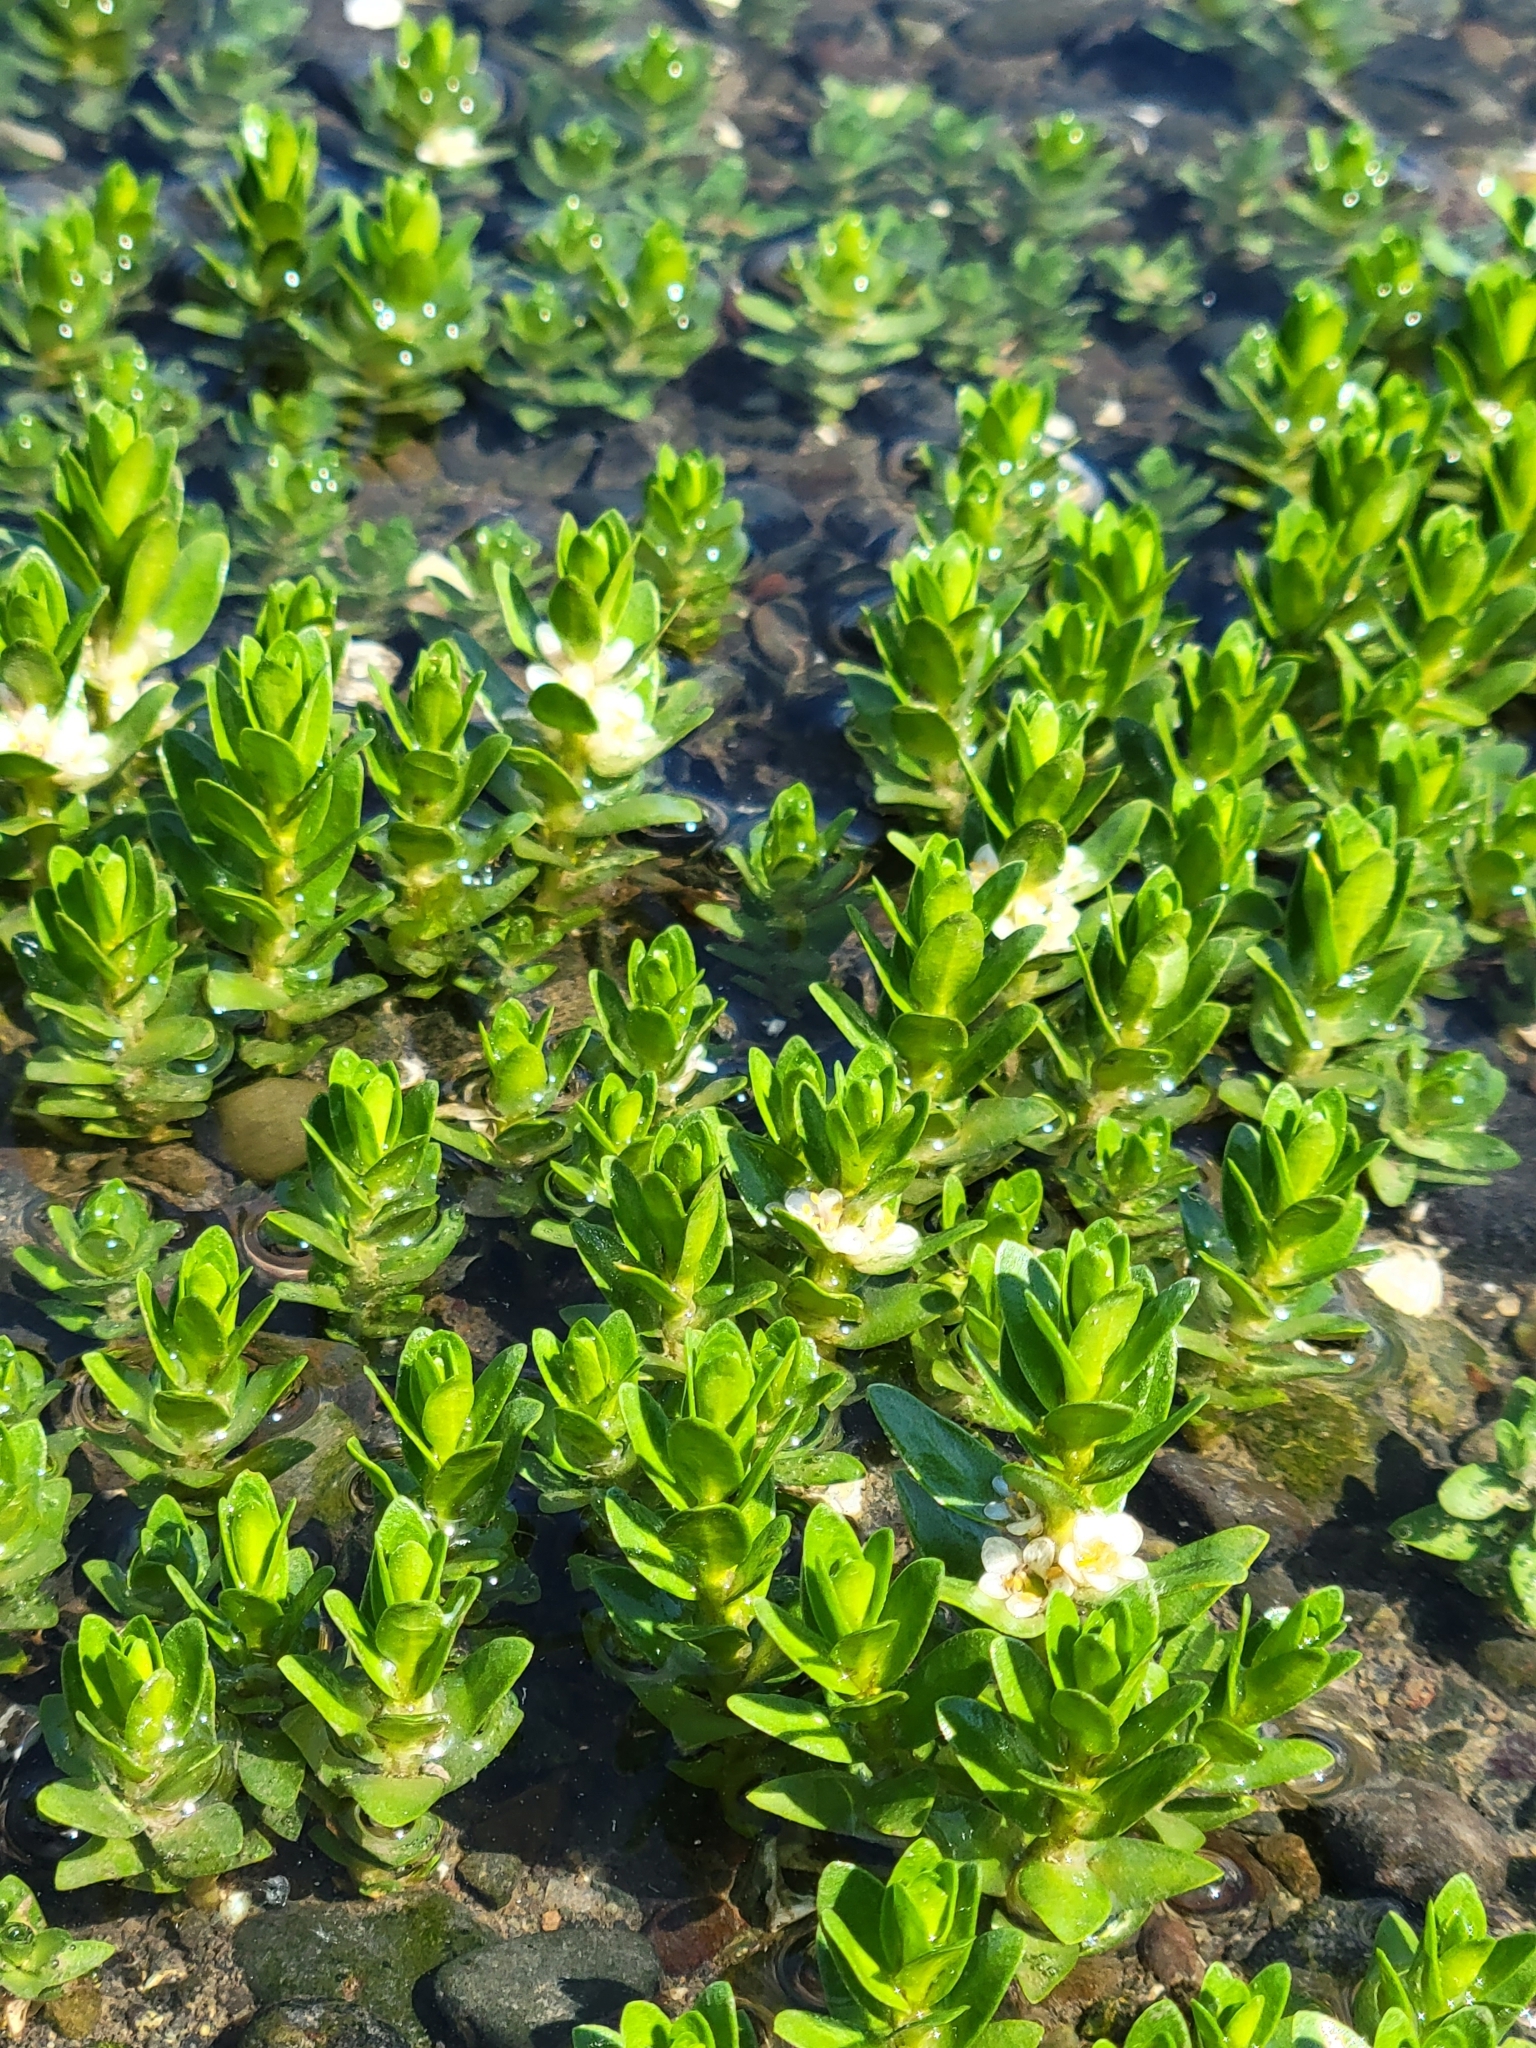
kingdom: Plantae
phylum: Tracheophyta
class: Magnoliopsida
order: Ericales
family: Primulaceae
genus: Lysimachia
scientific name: Lysimachia maritima
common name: Sea milkwort
